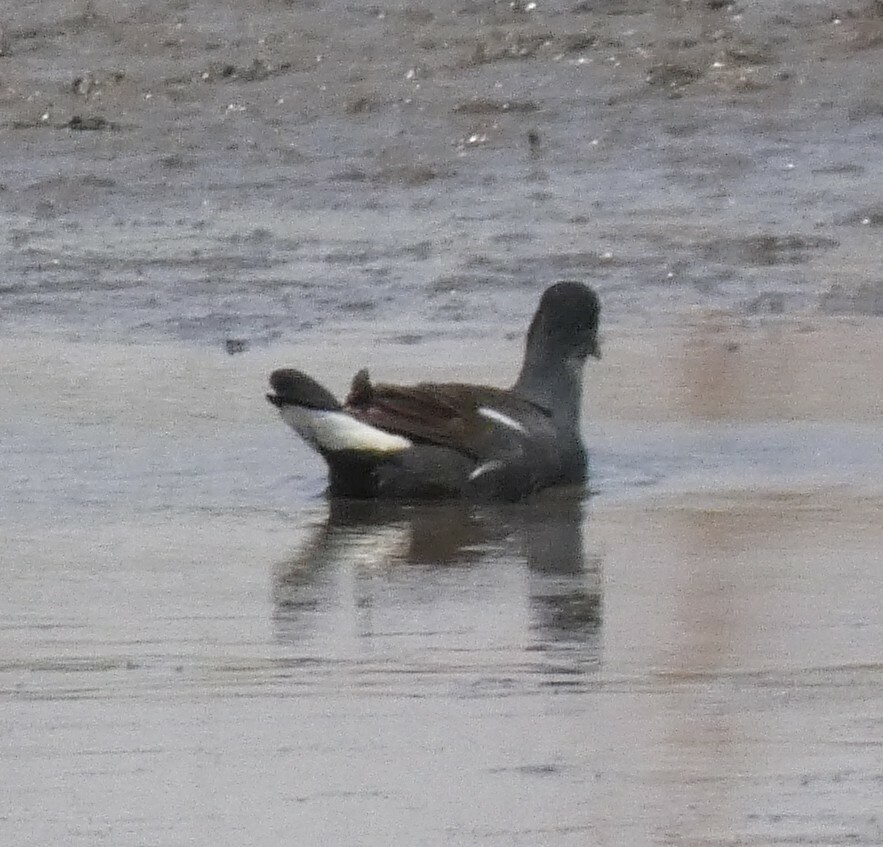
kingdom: Animalia
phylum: Chordata
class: Aves
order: Gruiformes
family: Rallidae
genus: Gallinula
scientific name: Gallinula chloropus
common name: Common moorhen
